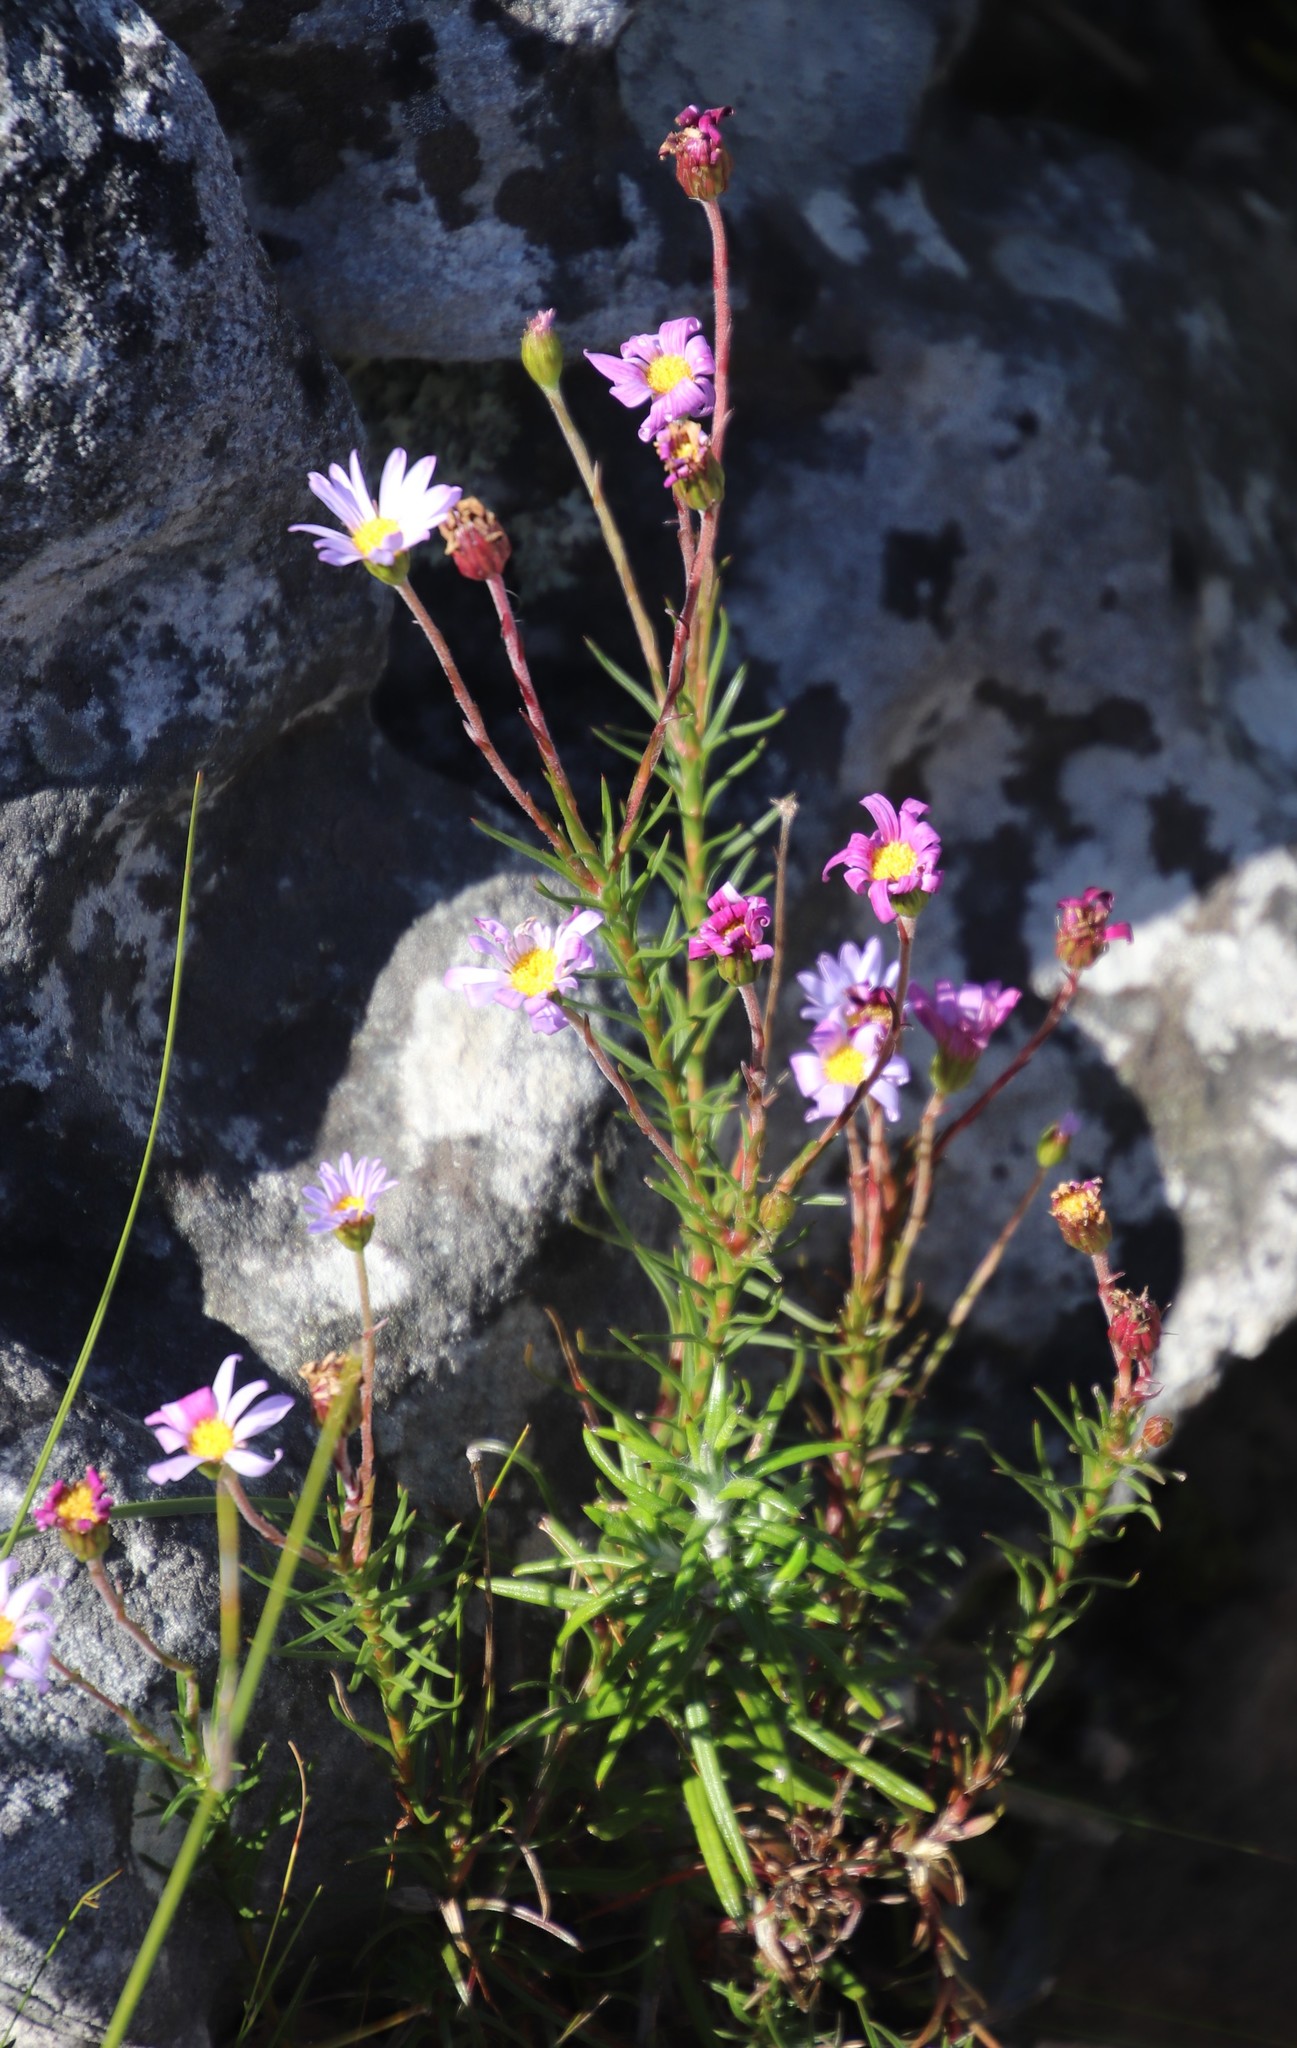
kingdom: Plantae
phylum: Tracheophyta
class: Magnoliopsida
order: Asterales
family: Asteraceae
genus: Zyrphelis
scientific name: Zyrphelis taxifolia
